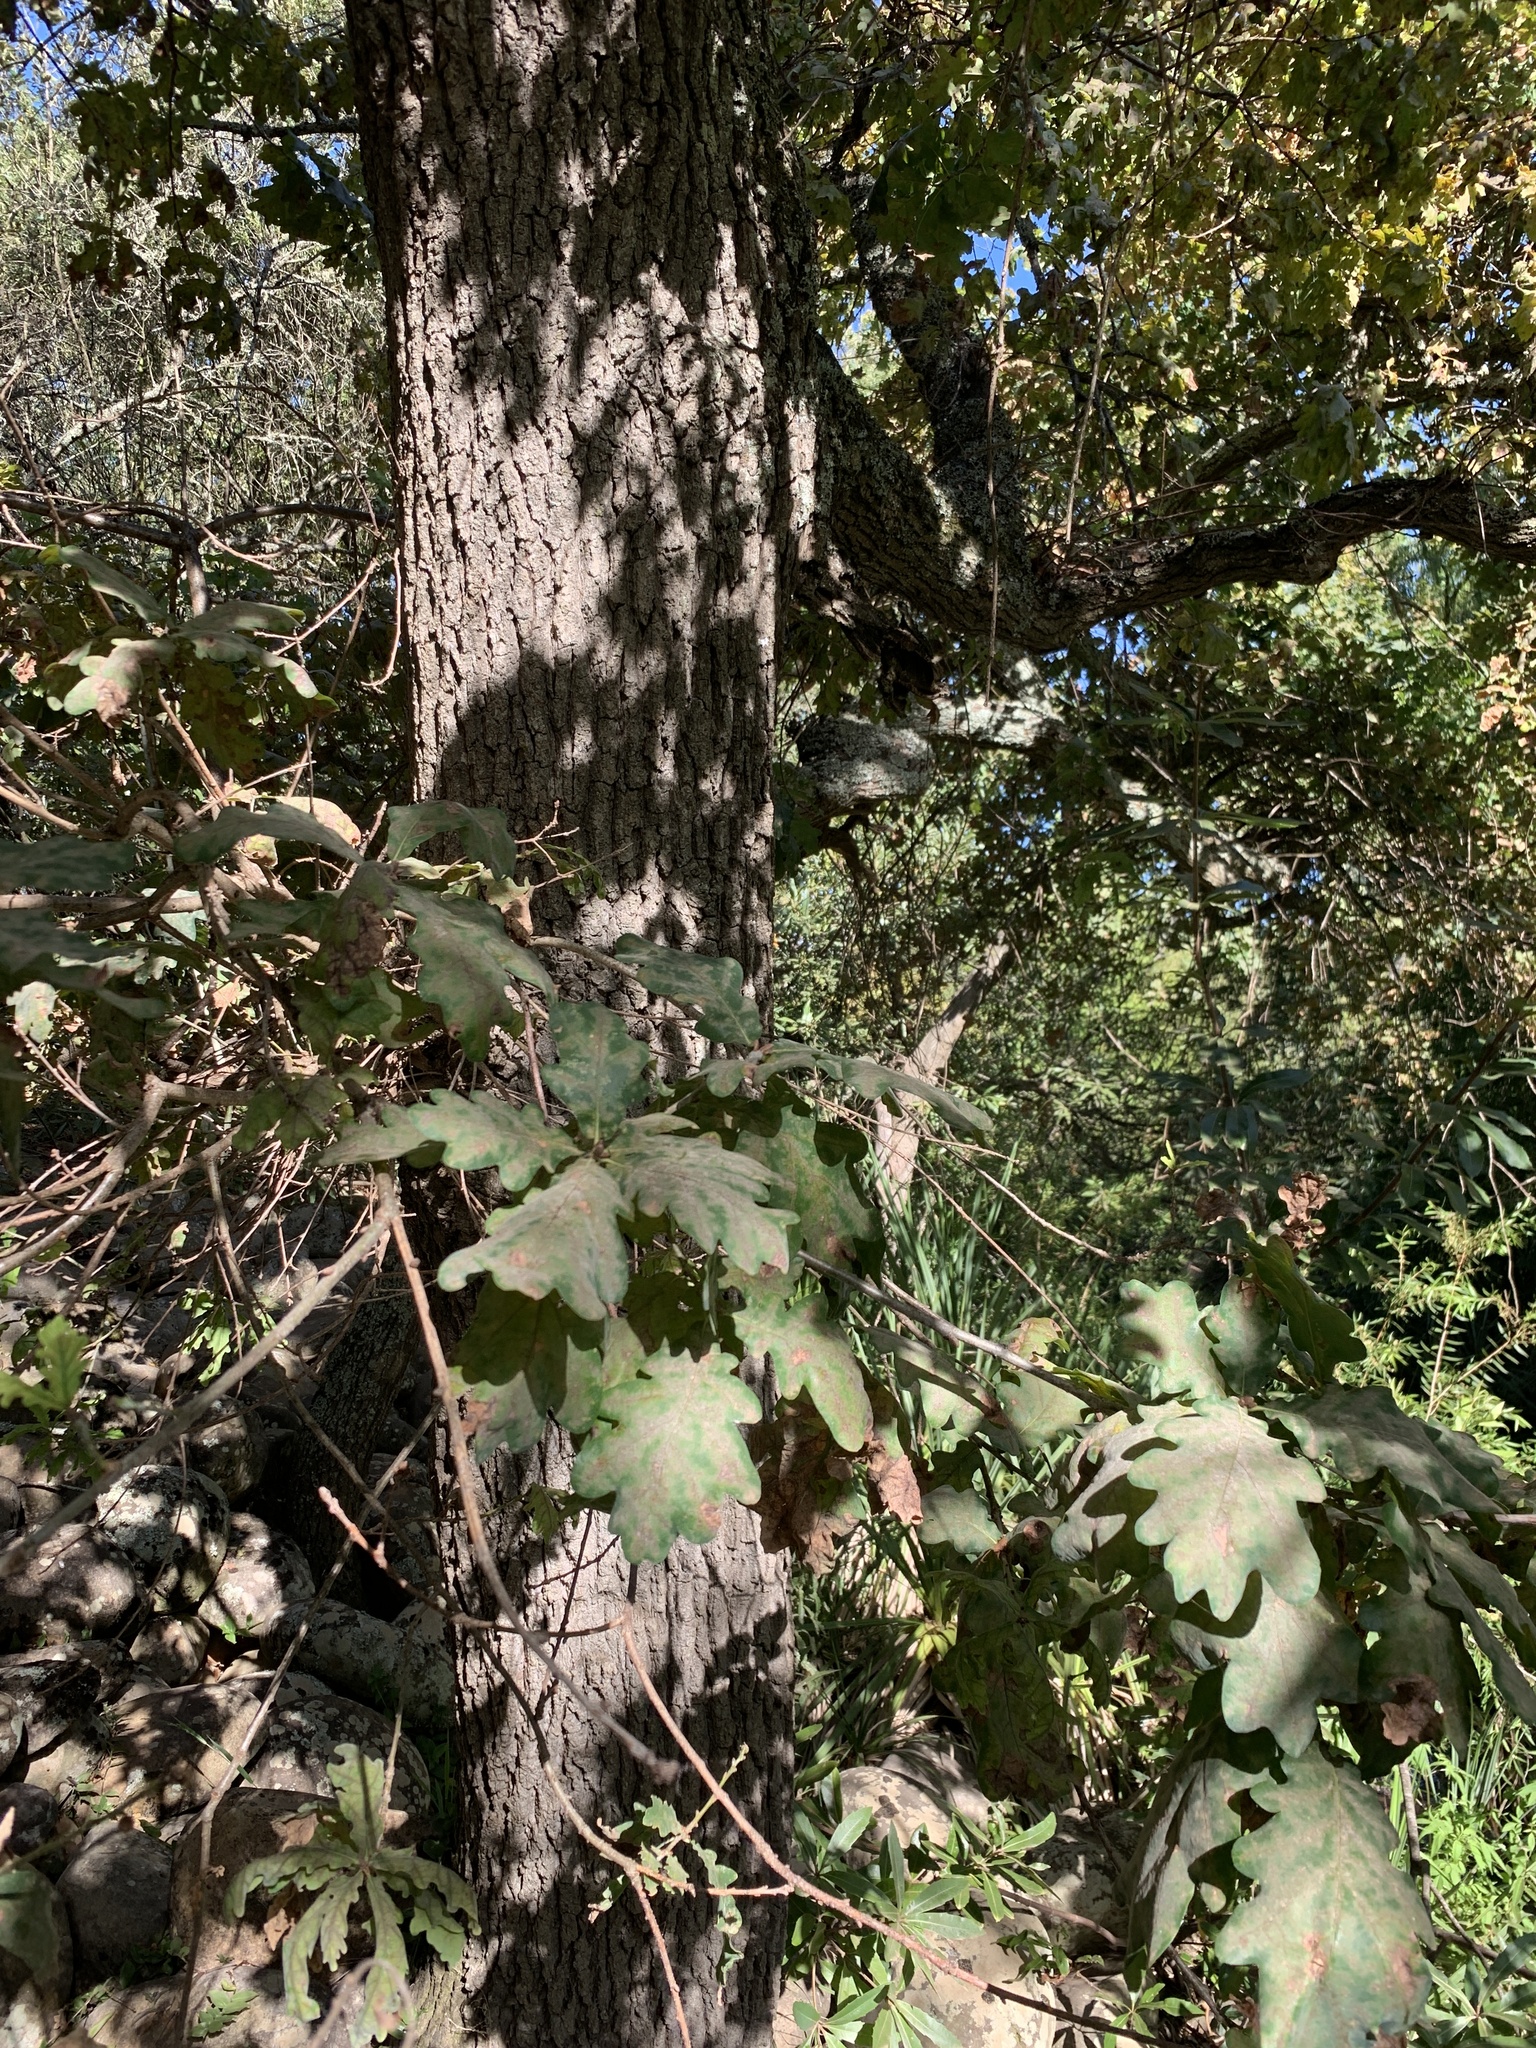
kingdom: Plantae
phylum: Tracheophyta
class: Magnoliopsida
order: Fagales
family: Fagaceae
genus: Quercus
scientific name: Quercus robur
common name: Pedunculate oak
